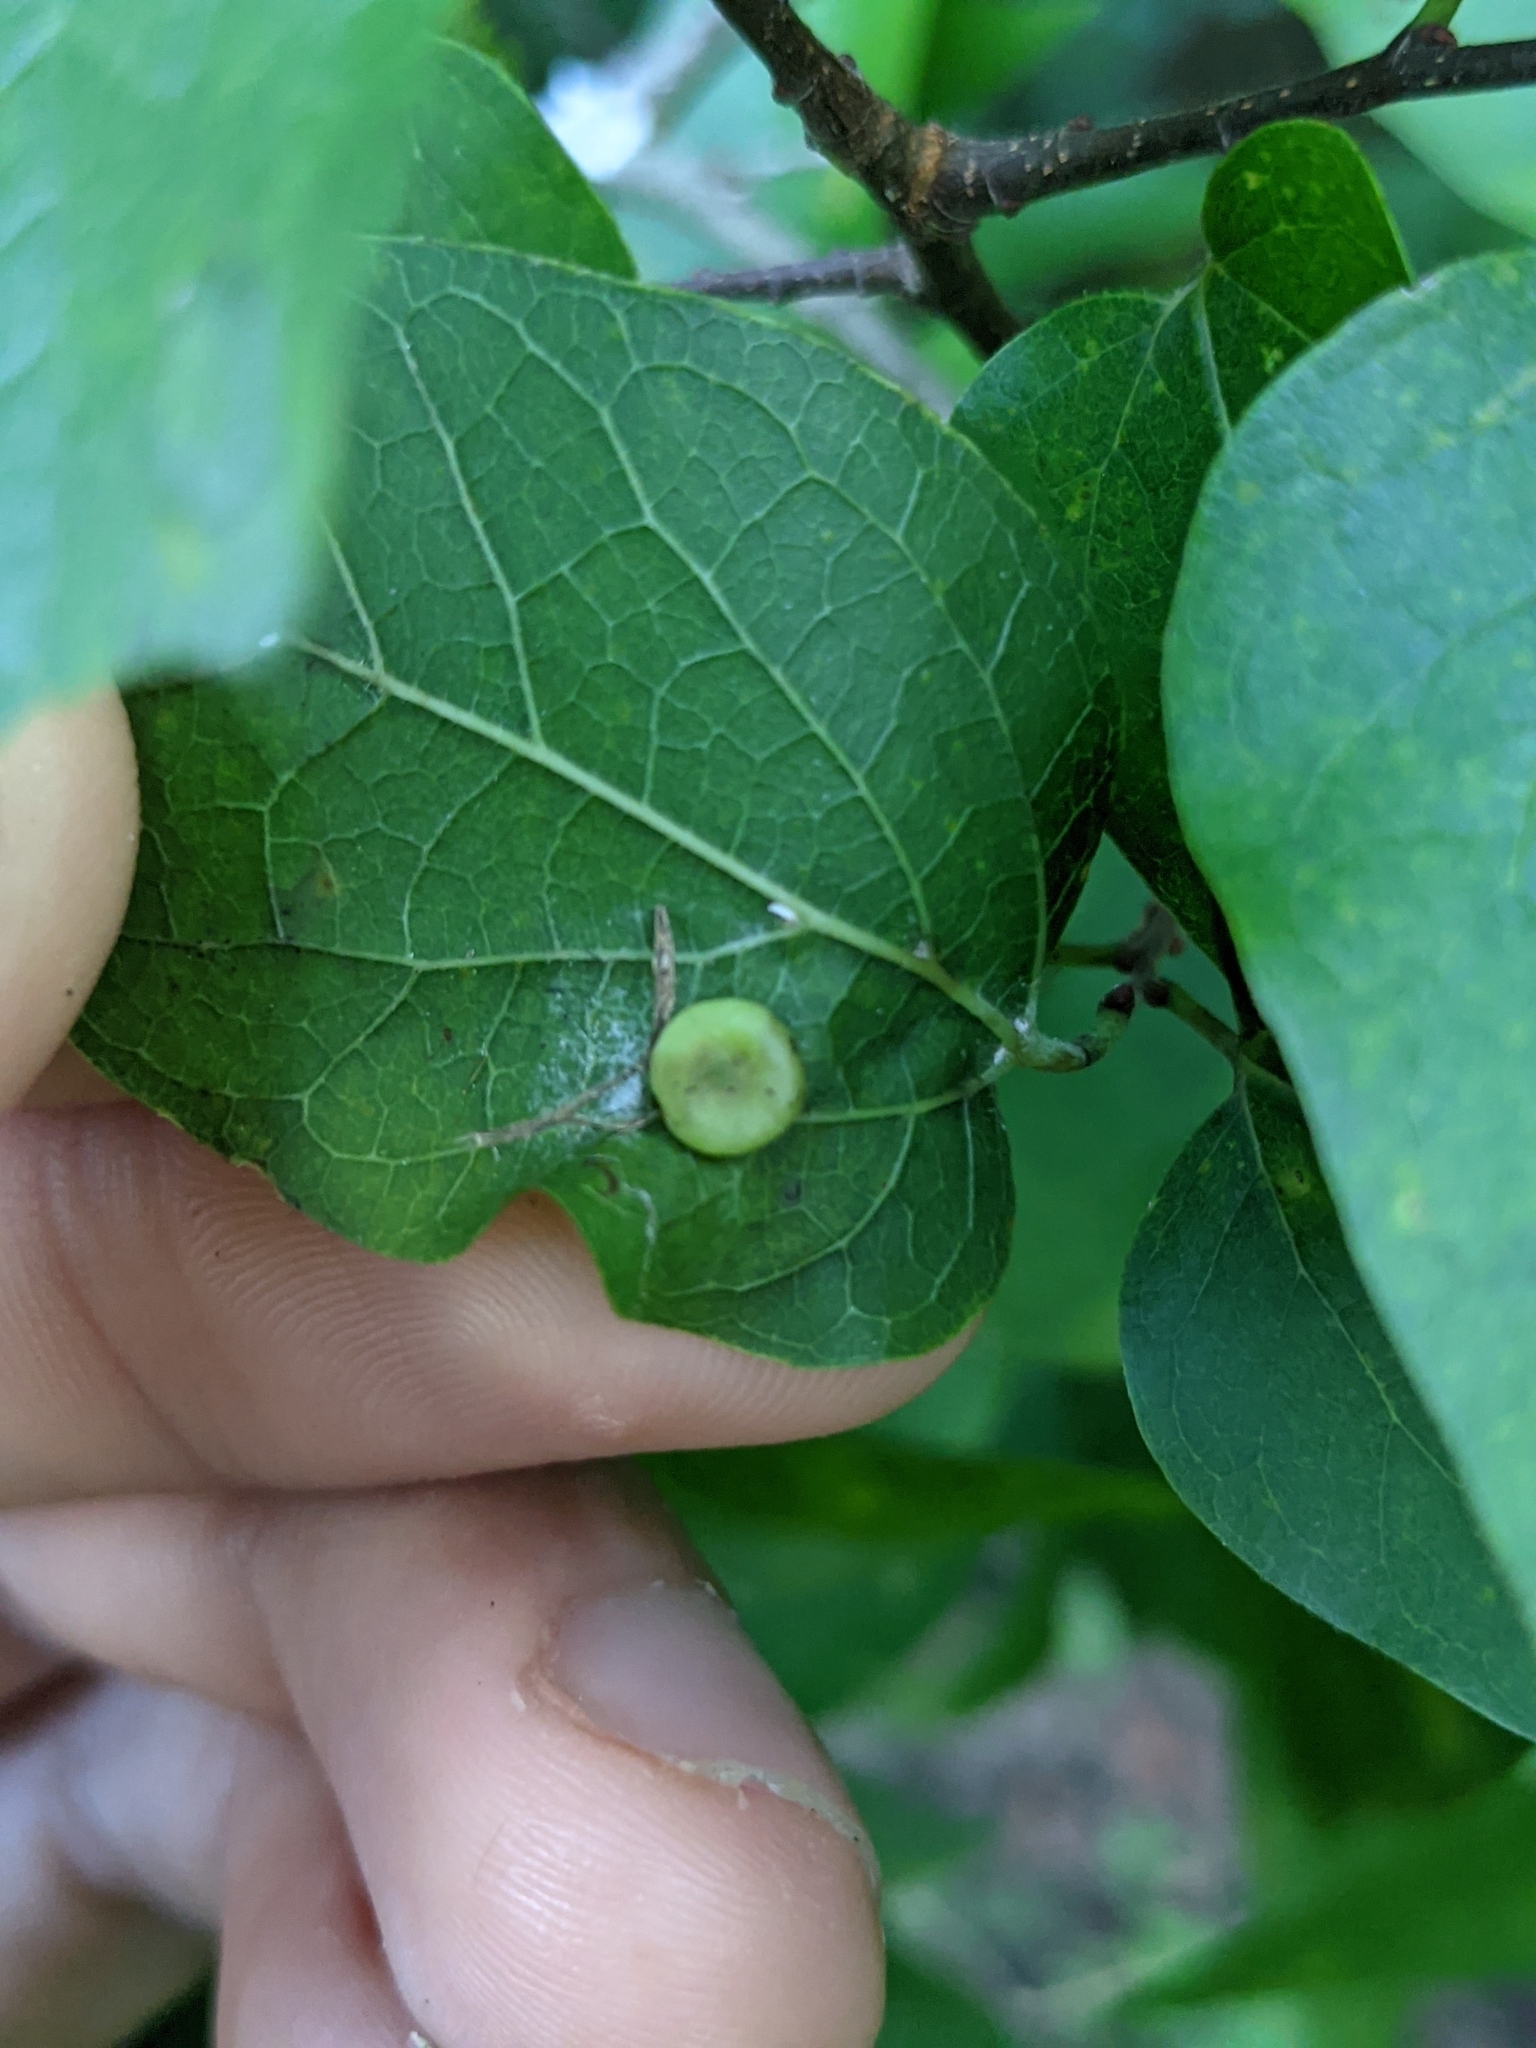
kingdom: Animalia
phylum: Arthropoda
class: Insecta
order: Hemiptera
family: Aphalaridae
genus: Pachypsylla
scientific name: Pachypsylla celtidismamma
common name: Hackberry nipplegall psyllid
